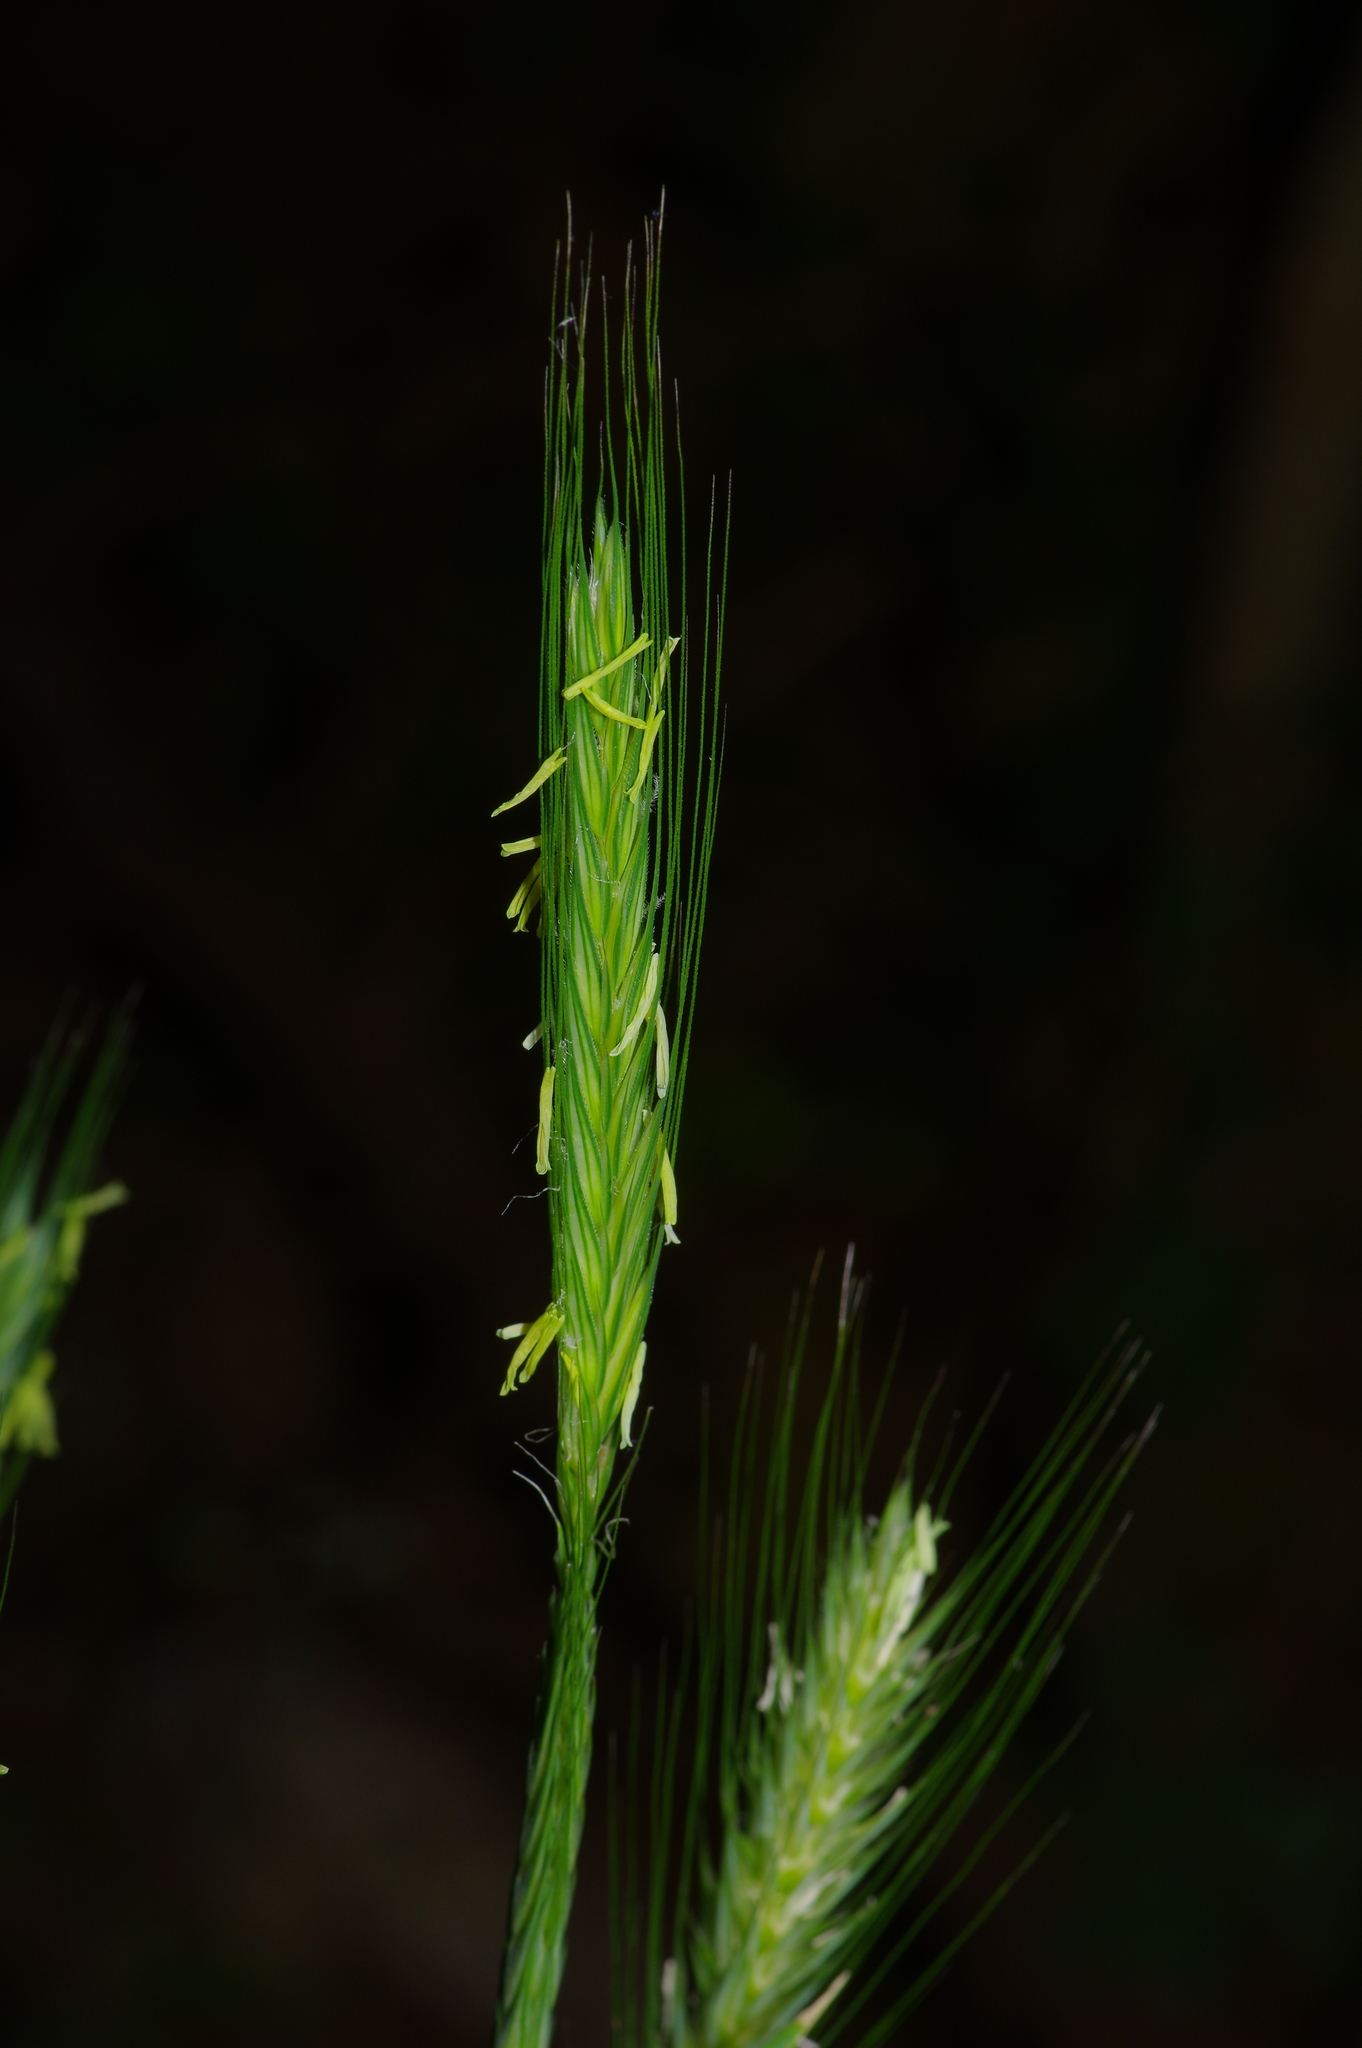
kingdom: Plantae
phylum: Tracheophyta
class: Liliopsida
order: Poales
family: Poaceae
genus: Secale
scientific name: Secale cereale
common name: Rye
